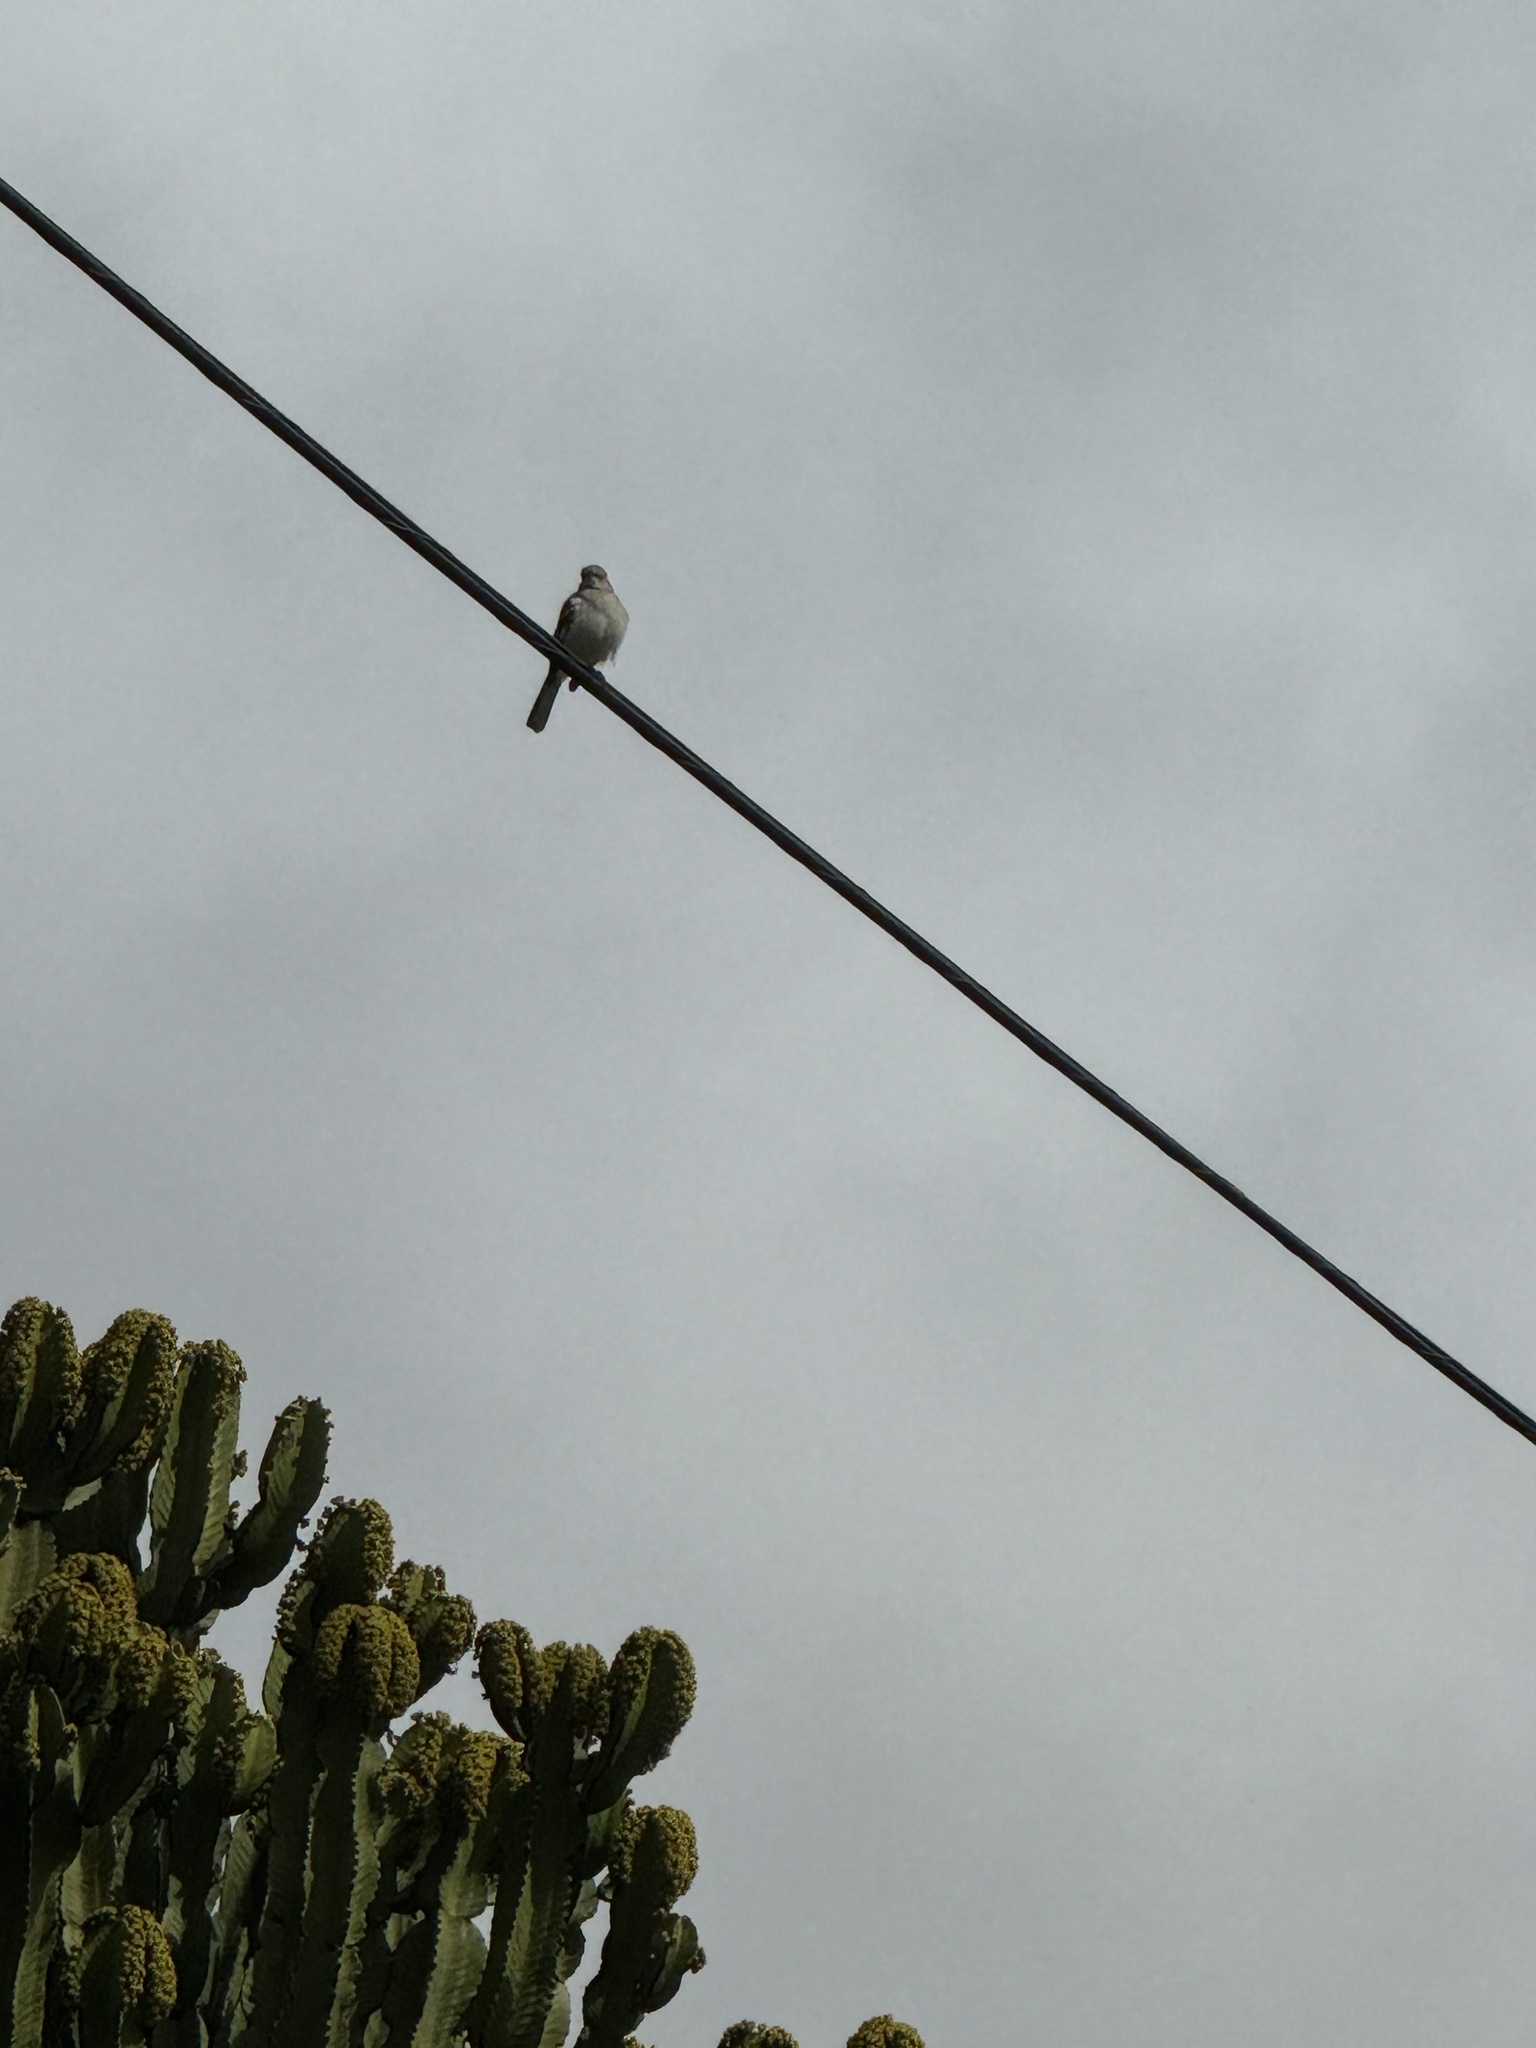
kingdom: Animalia
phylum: Chordata
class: Aves
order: Passeriformes
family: Mimidae
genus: Mimus
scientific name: Mimus polyglottos
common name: Northern mockingbird
